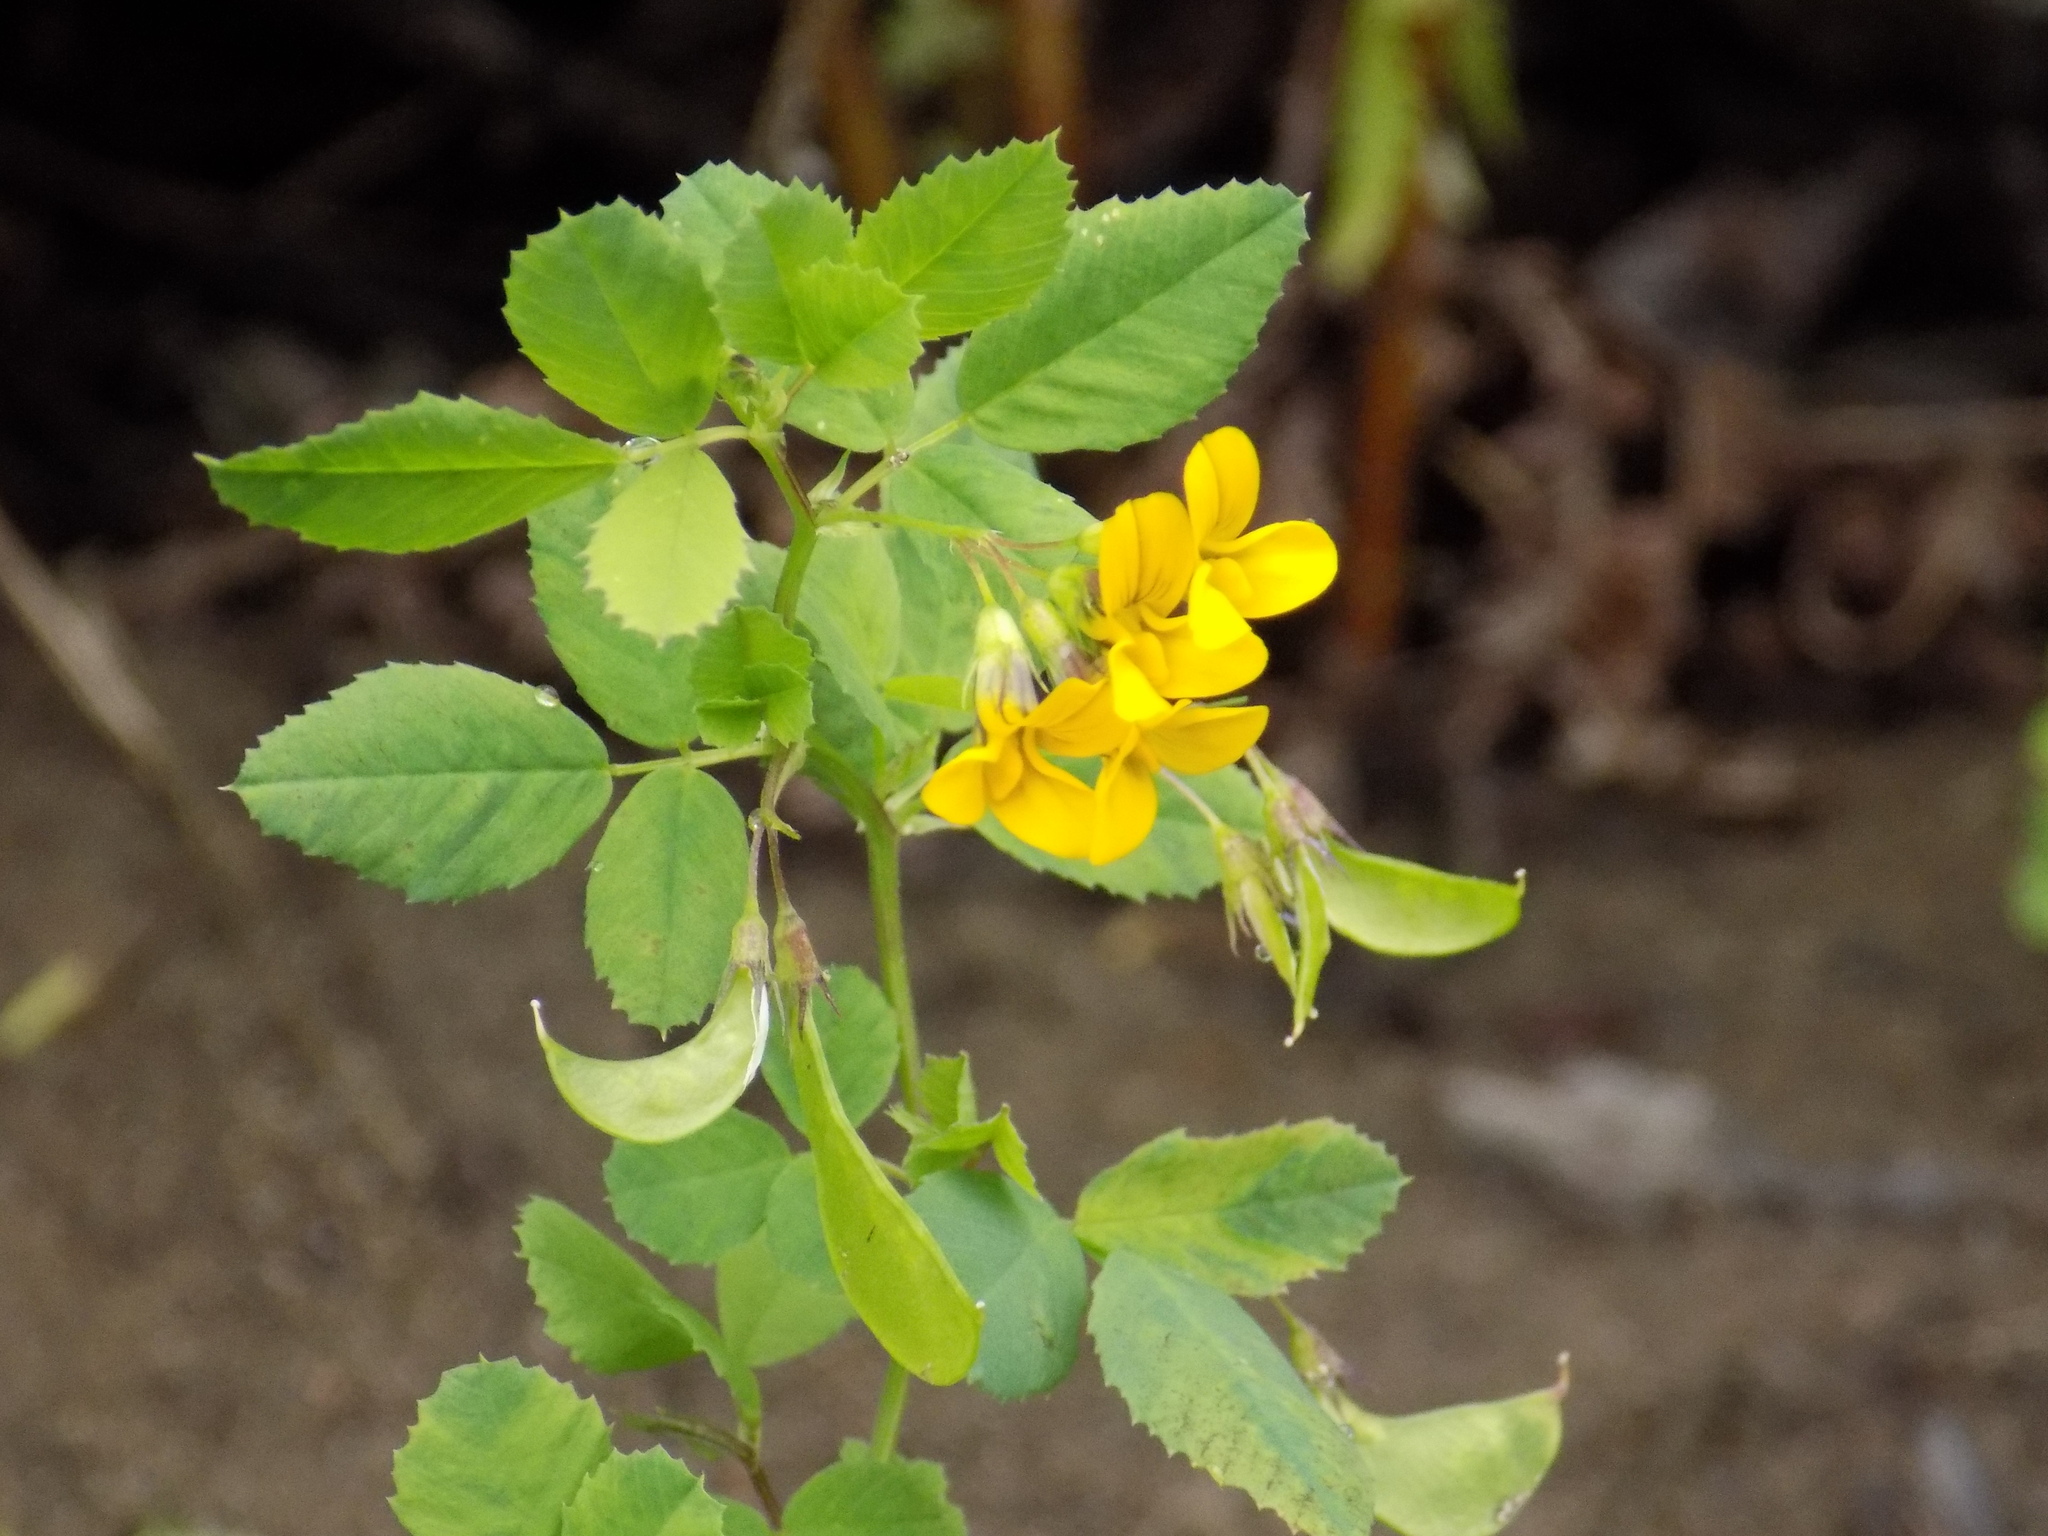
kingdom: Plantae
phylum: Tracheophyta
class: Magnoliopsida
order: Fabales
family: Fabaceae
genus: Medicago
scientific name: Medicago platycarpos
